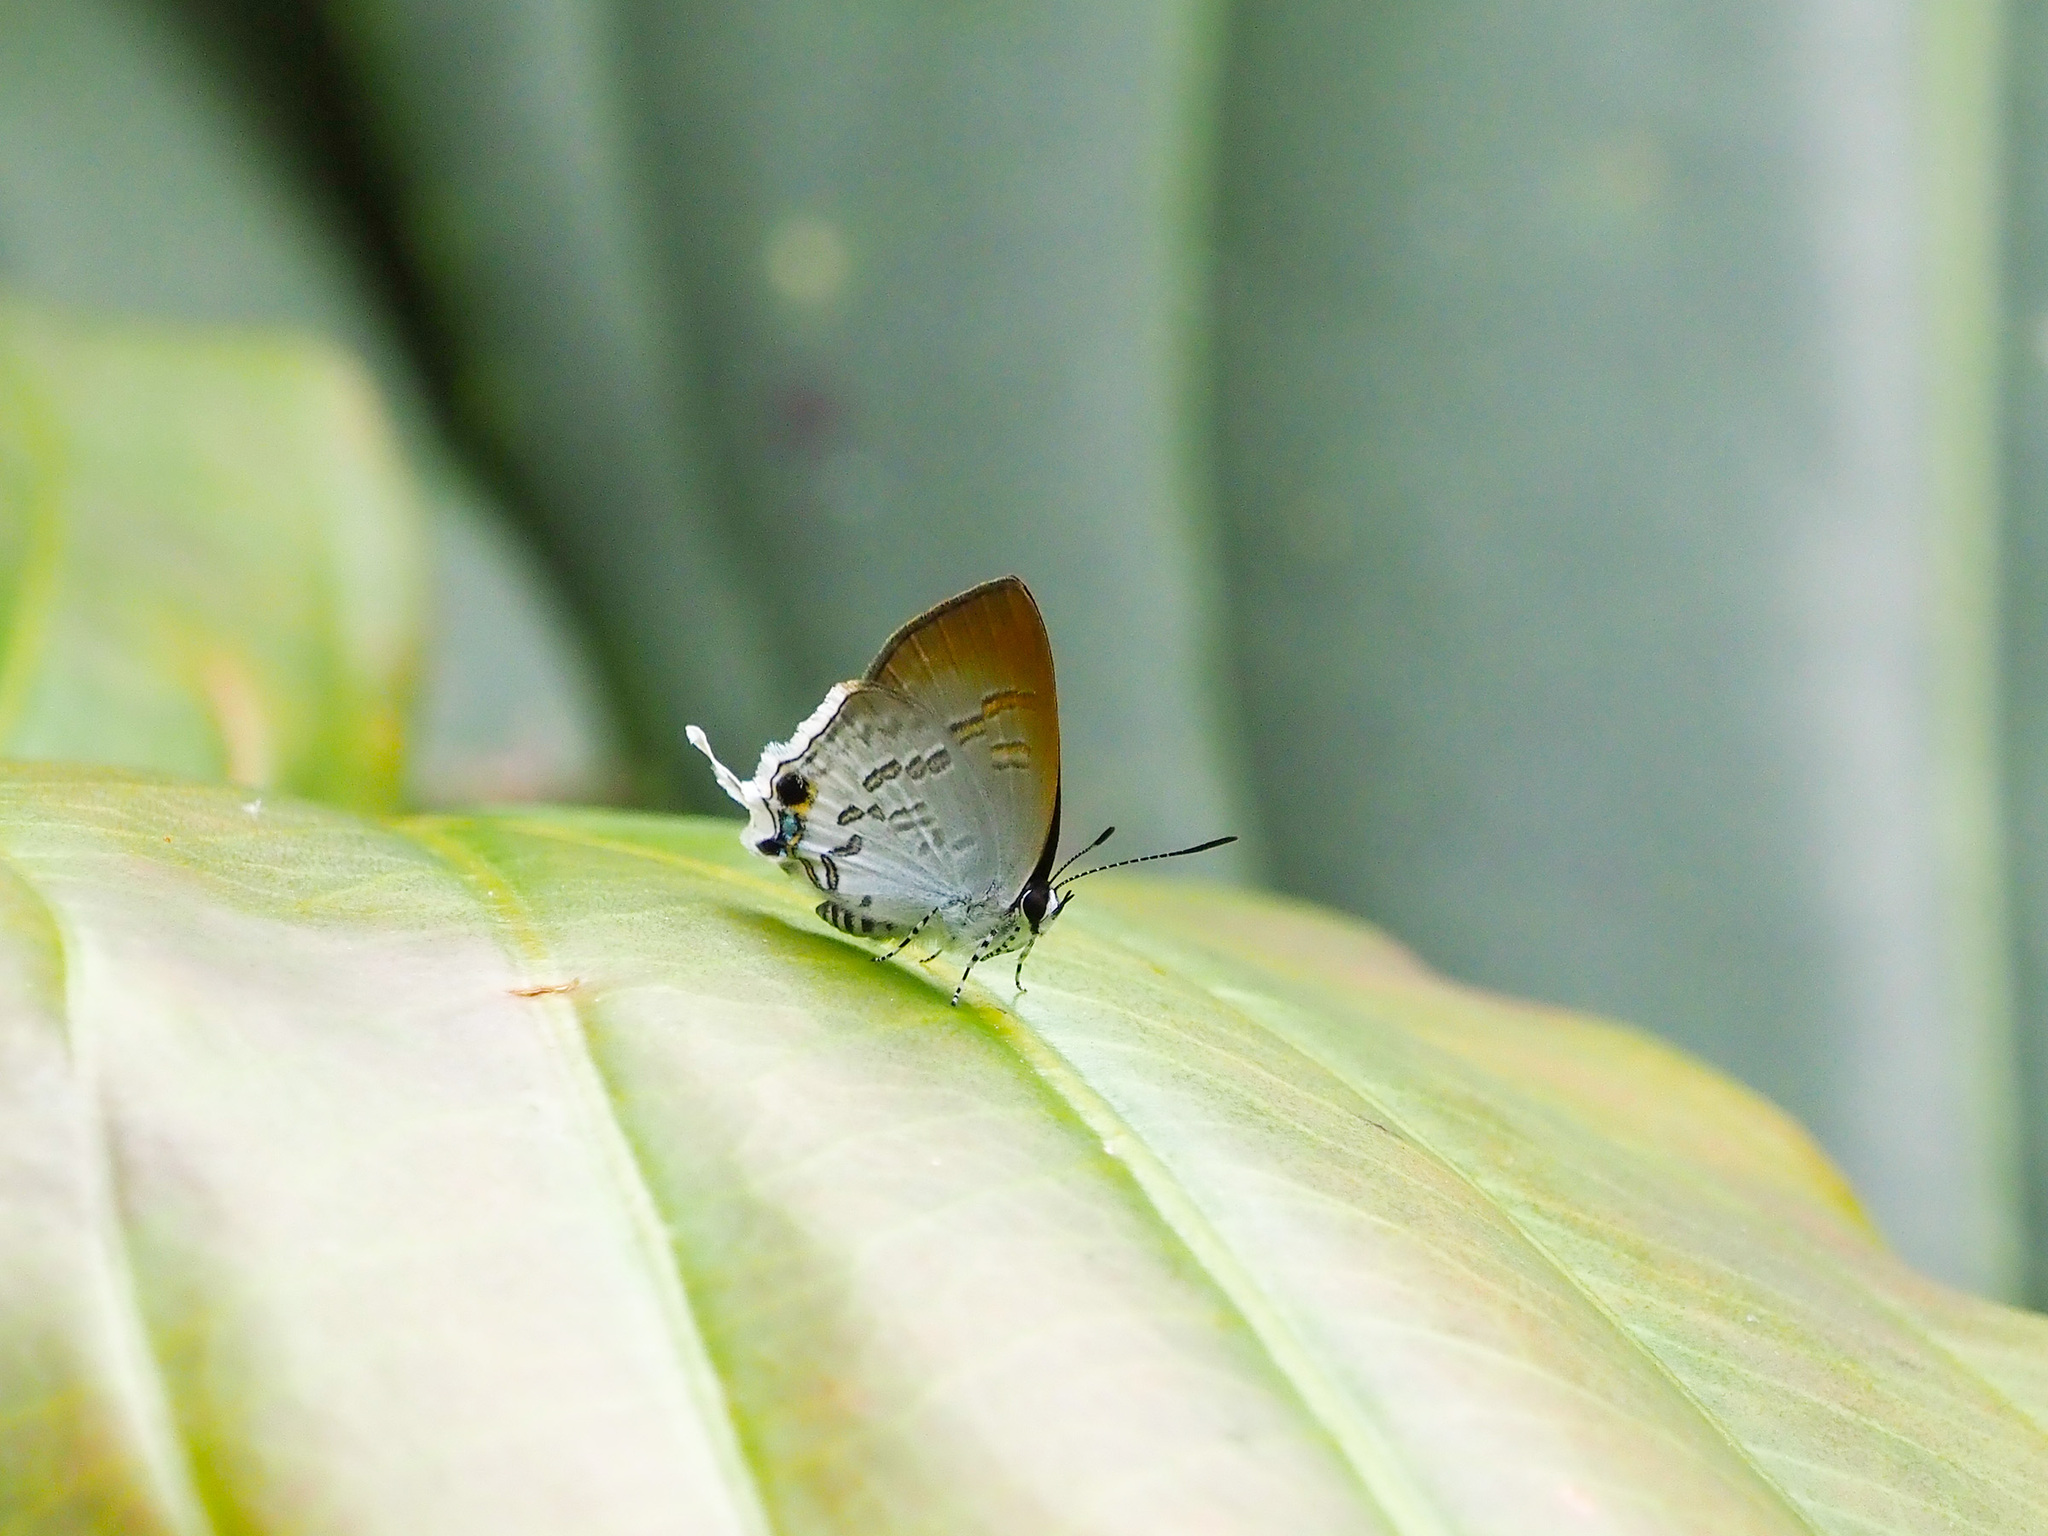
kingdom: Animalia
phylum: Arthropoda
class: Insecta
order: Lepidoptera
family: Lycaenidae
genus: Sinthusa
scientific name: Sinthusa privata
